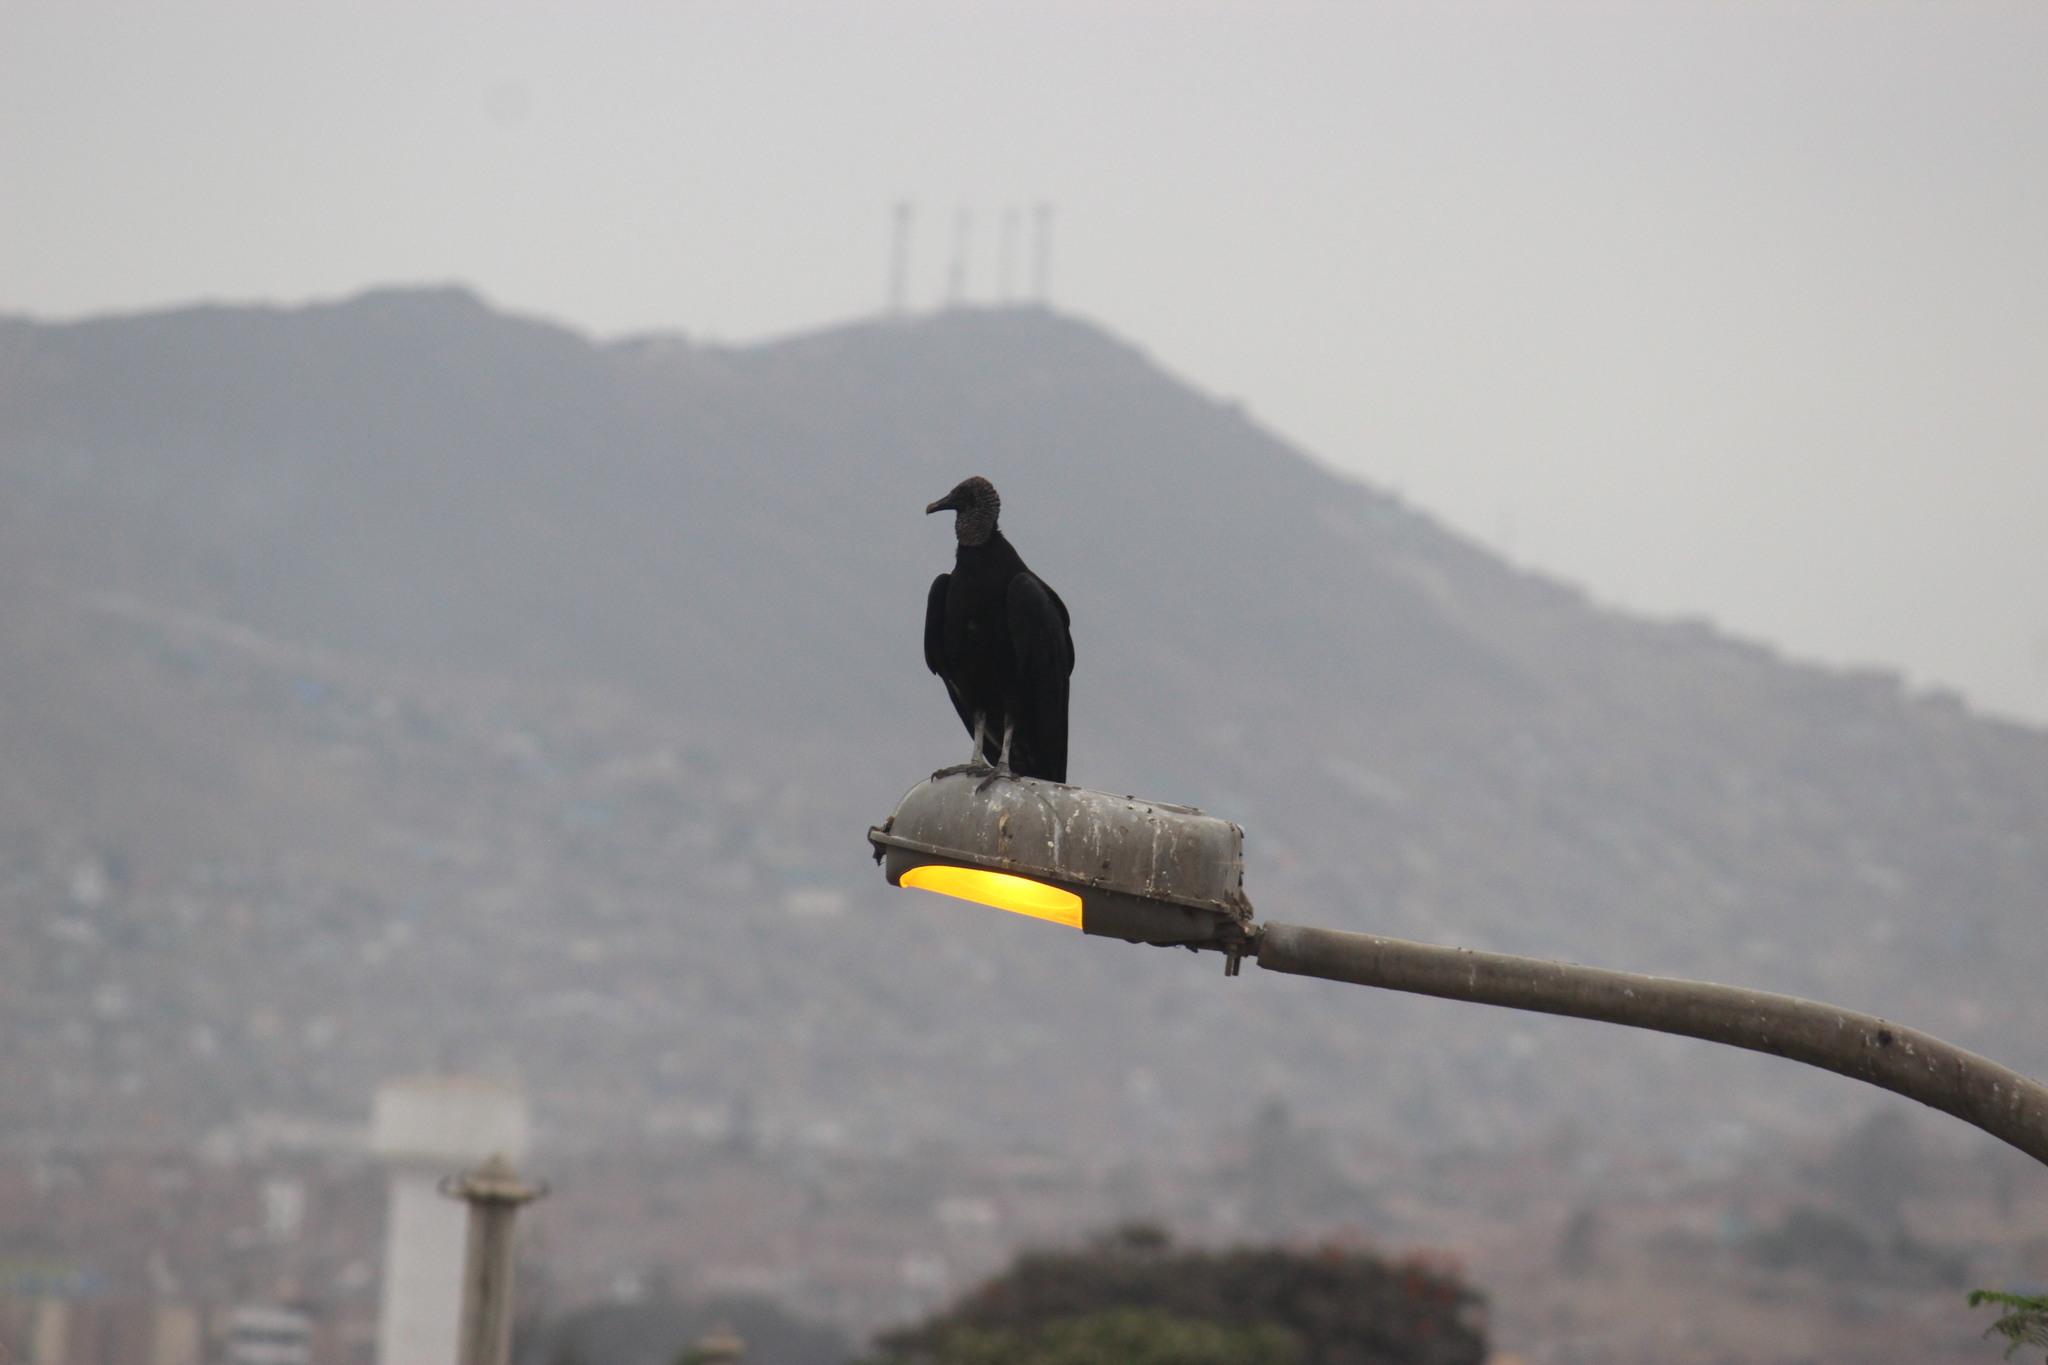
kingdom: Animalia
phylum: Chordata
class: Aves
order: Accipitriformes
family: Cathartidae
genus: Coragyps
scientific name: Coragyps atratus
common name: Black vulture
